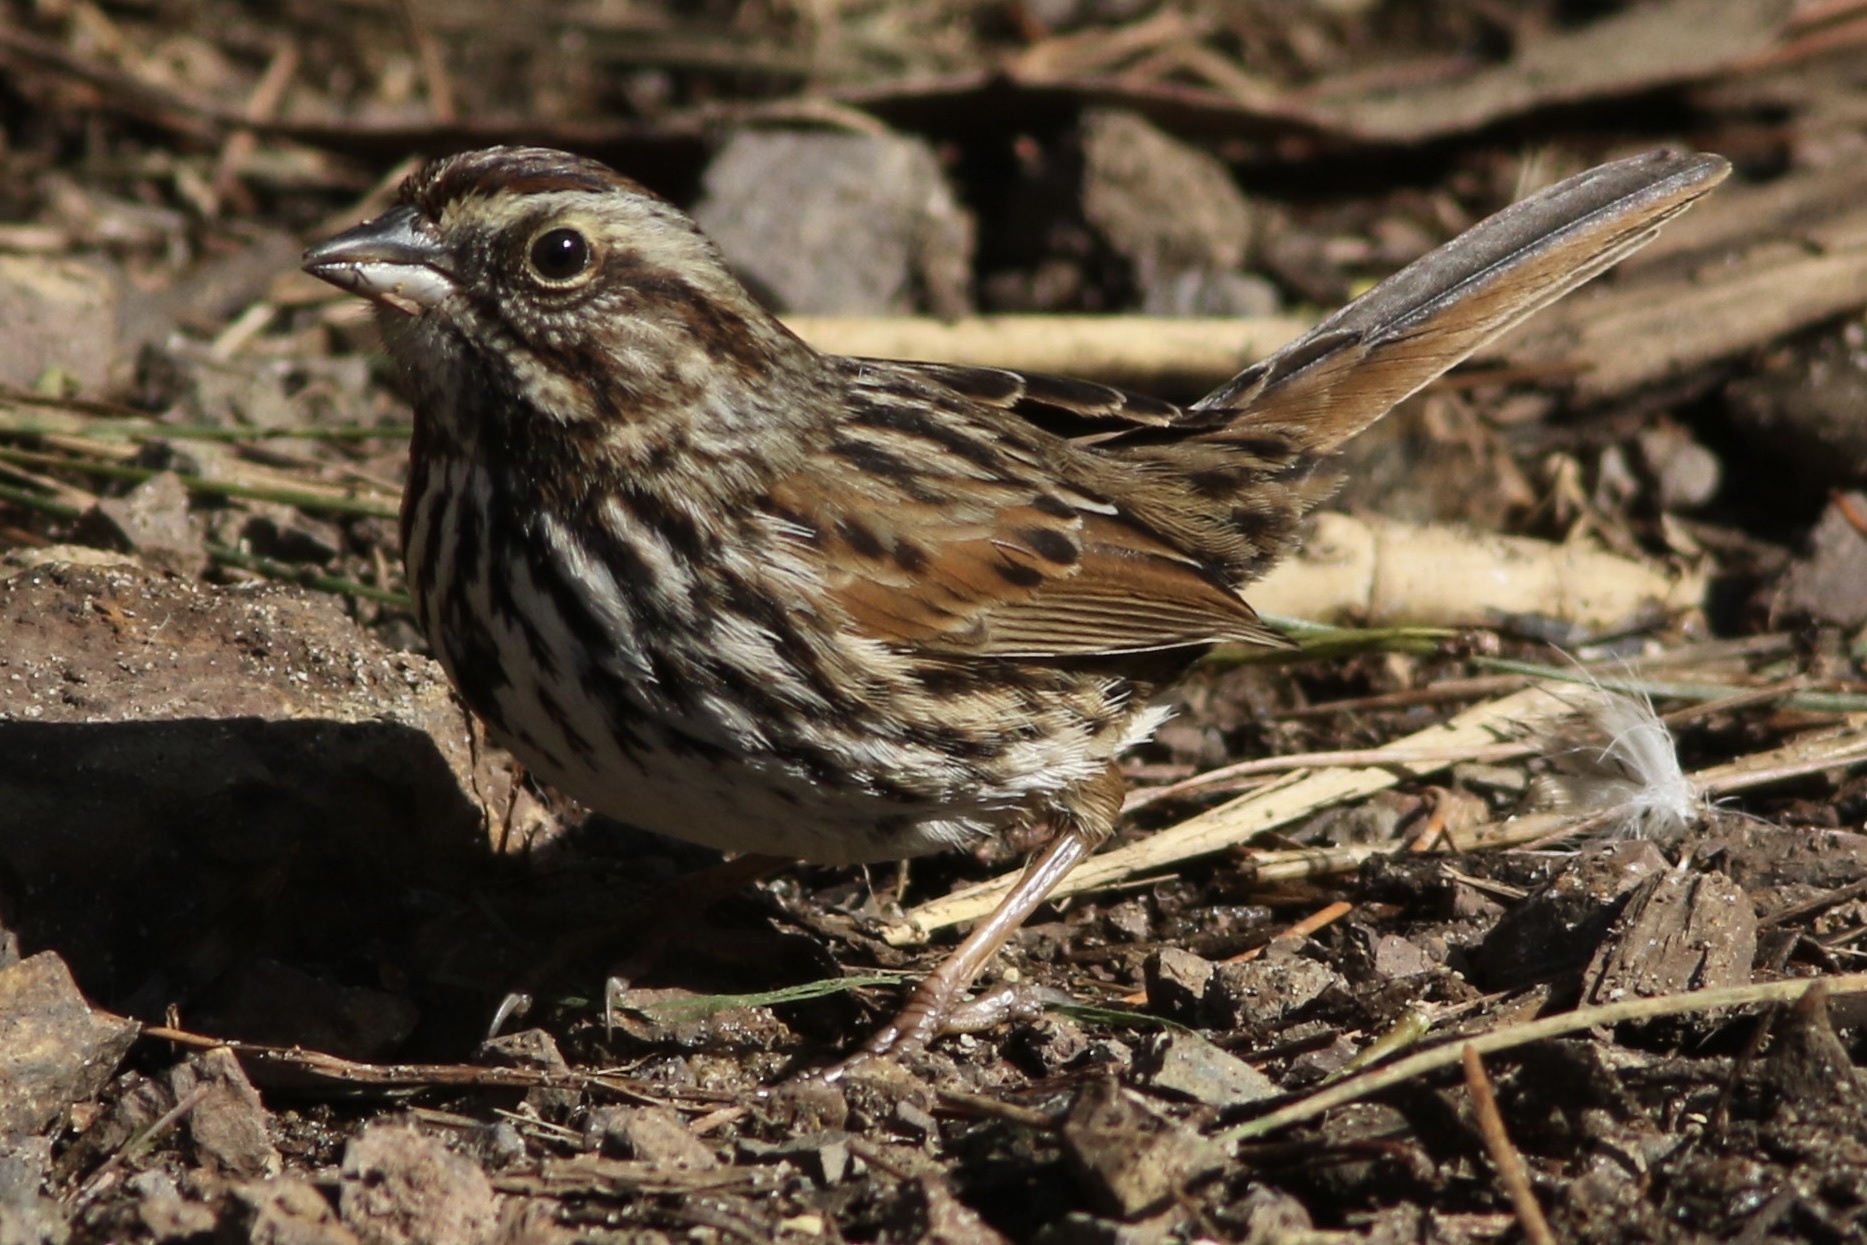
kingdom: Animalia
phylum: Chordata
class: Aves
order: Passeriformes
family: Passerellidae
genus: Melospiza
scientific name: Melospiza melodia
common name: Song sparrow
